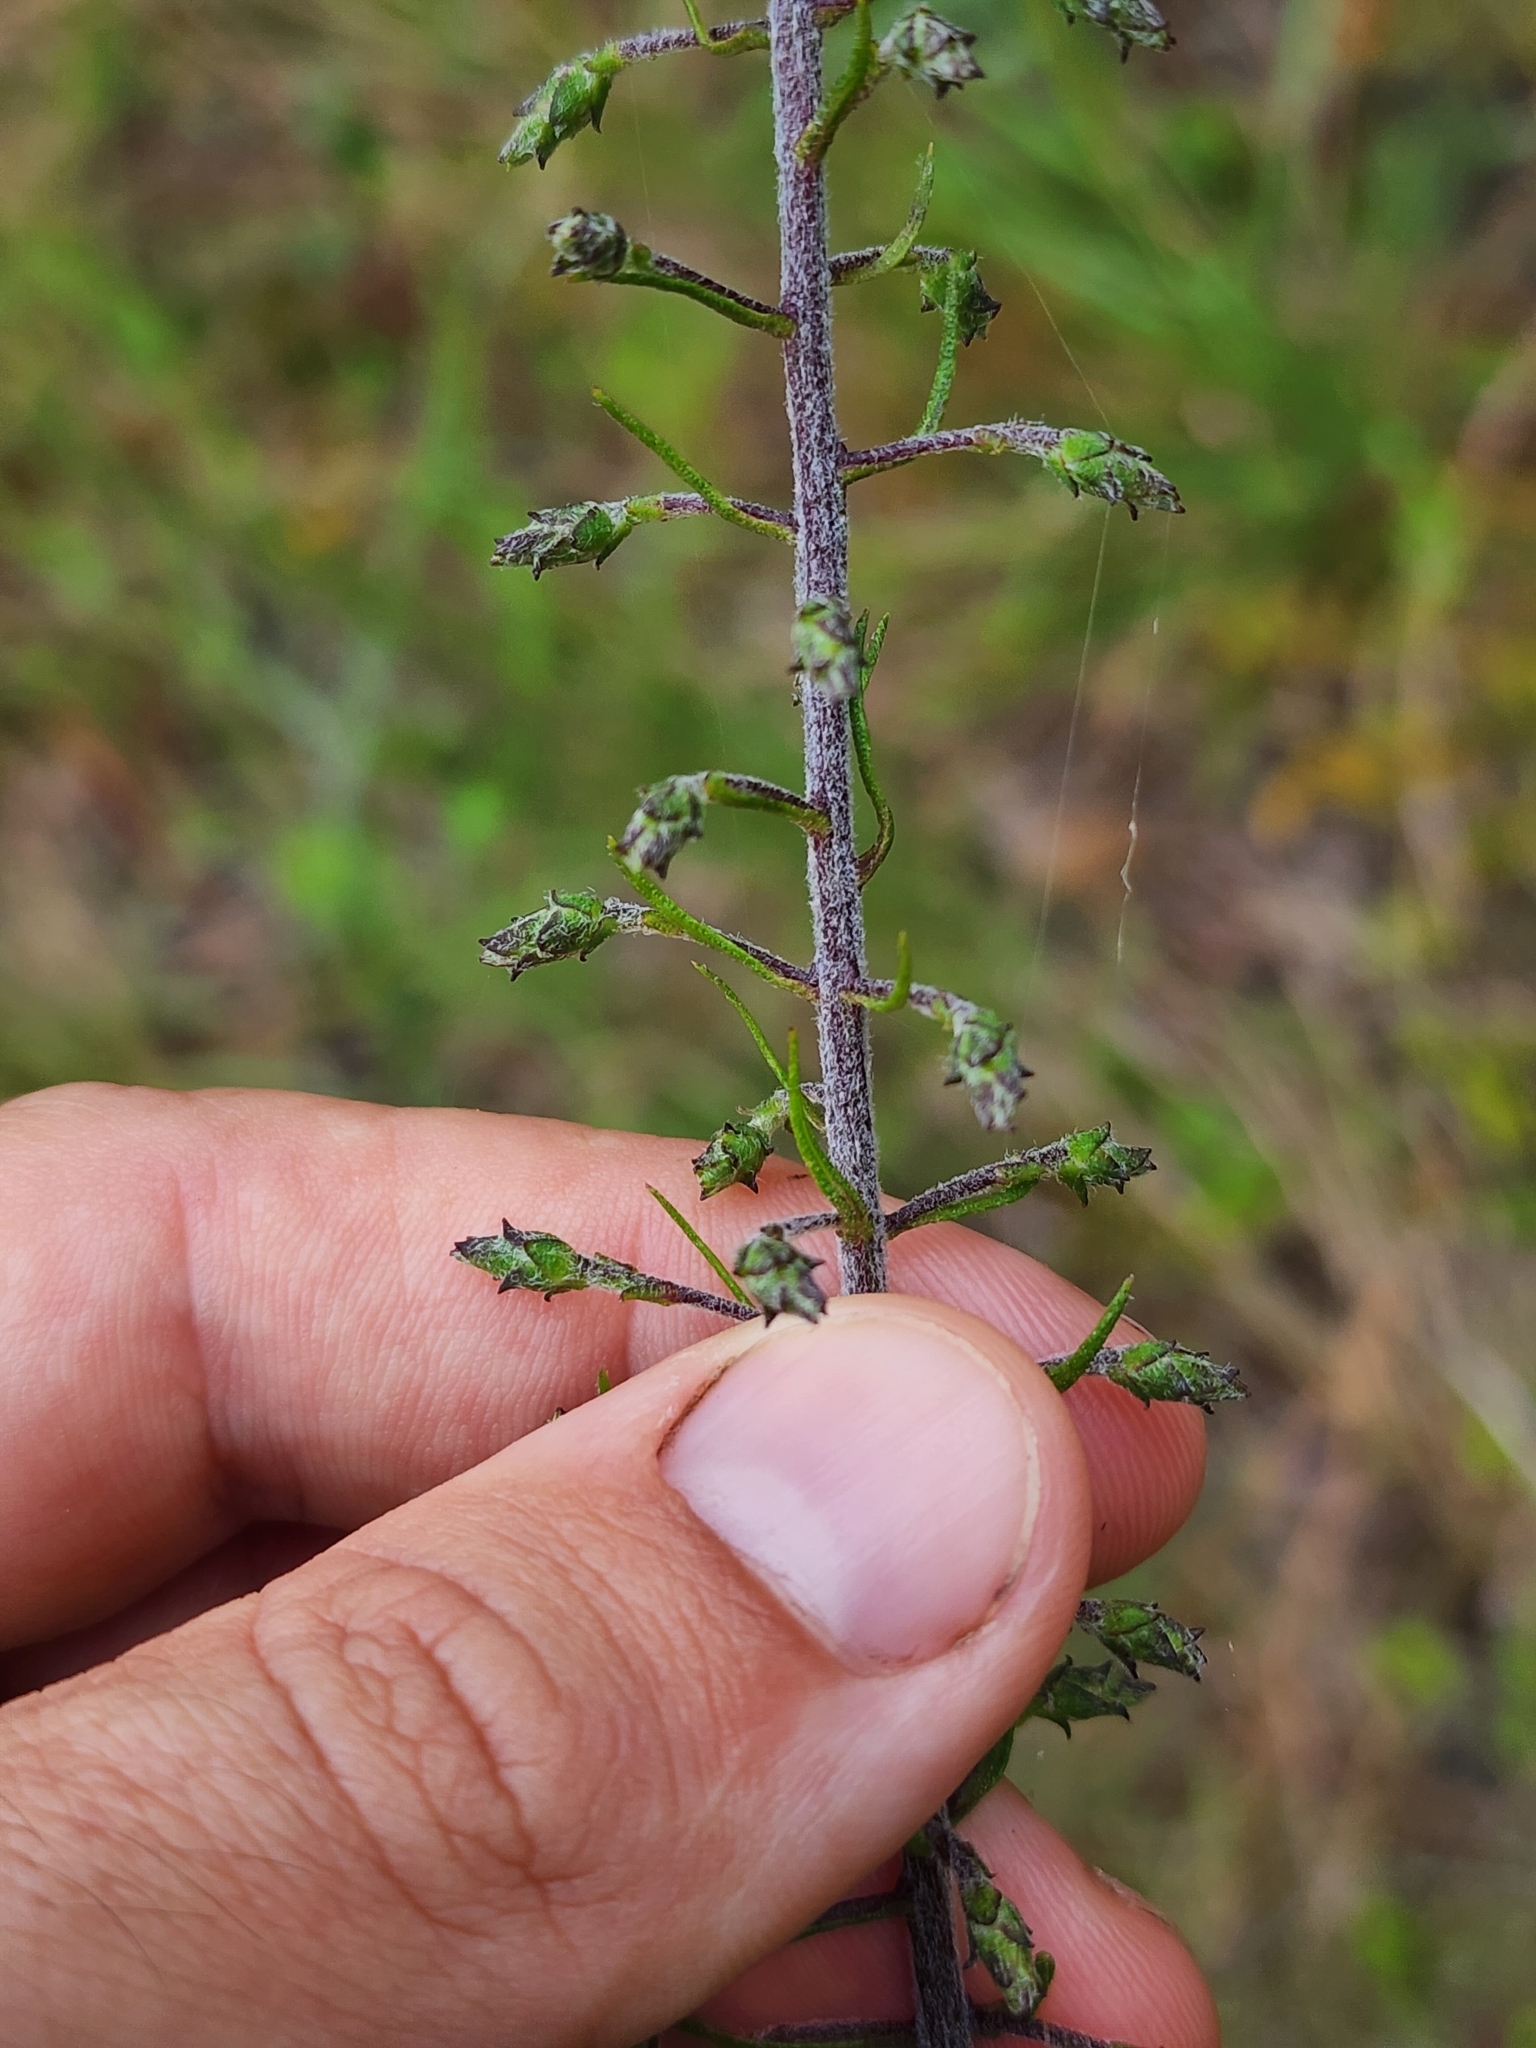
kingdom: Plantae
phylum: Tracheophyta
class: Magnoliopsida
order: Asterales
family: Asteraceae
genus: Liatris
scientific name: Liatris gracilis
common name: Slender gayfeather
